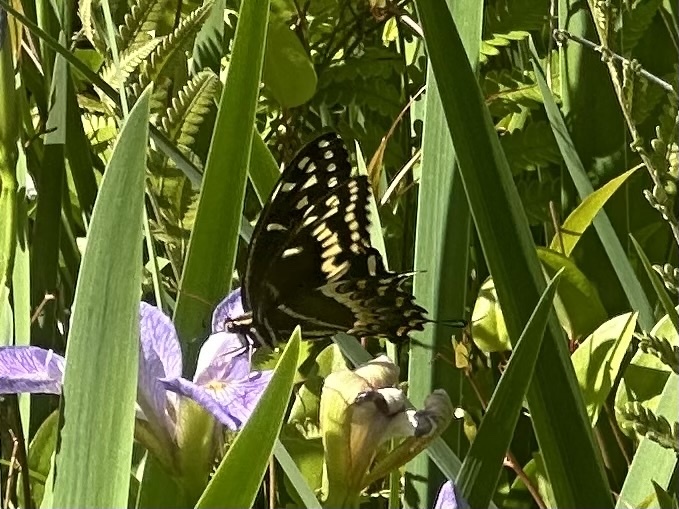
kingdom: Animalia
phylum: Arthropoda
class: Insecta
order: Lepidoptera
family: Papilionidae
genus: Papilio
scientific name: Papilio palamedes
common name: Palamedes swallowtail
